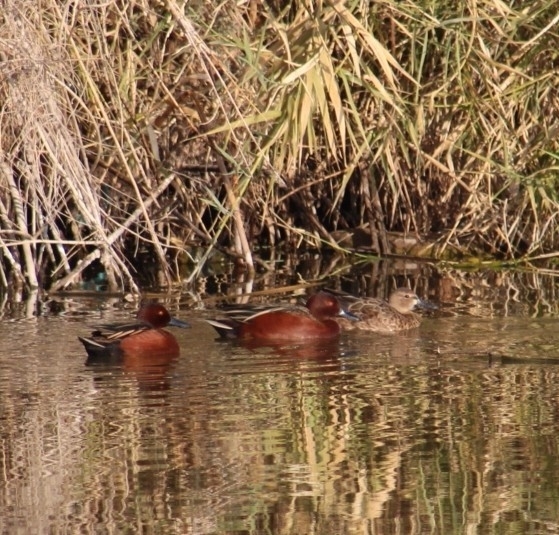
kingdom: Animalia
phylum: Chordata
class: Aves
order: Anseriformes
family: Anatidae
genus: Spatula
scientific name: Spatula cyanoptera
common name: Cinnamon teal
